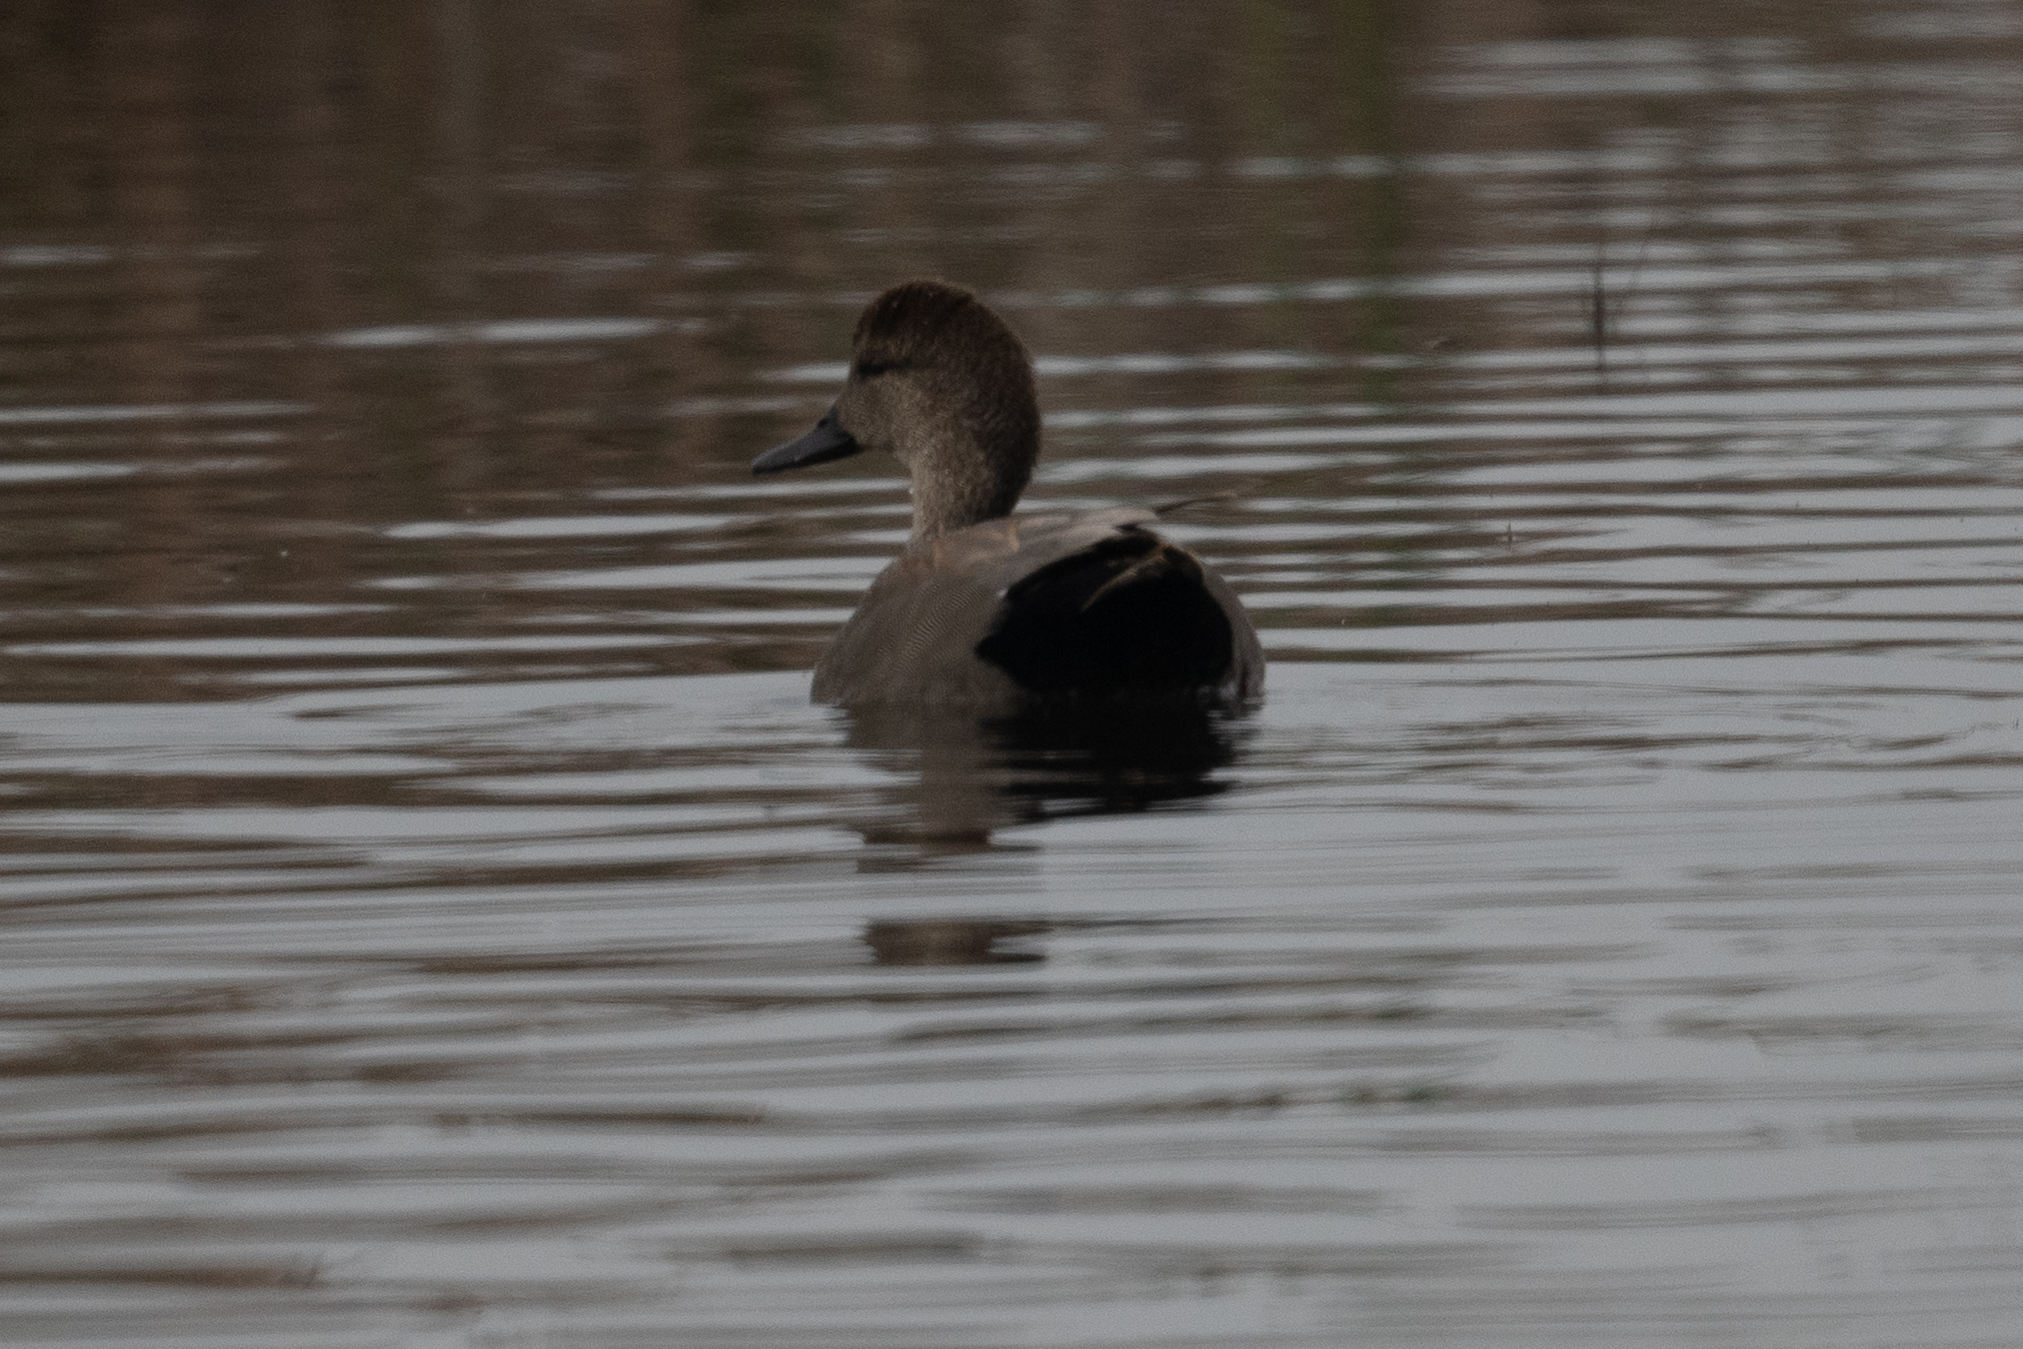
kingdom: Animalia
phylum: Chordata
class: Aves
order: Anseriformes
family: Anatidae
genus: Mareca
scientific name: Mareca strepera
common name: Gadwall
